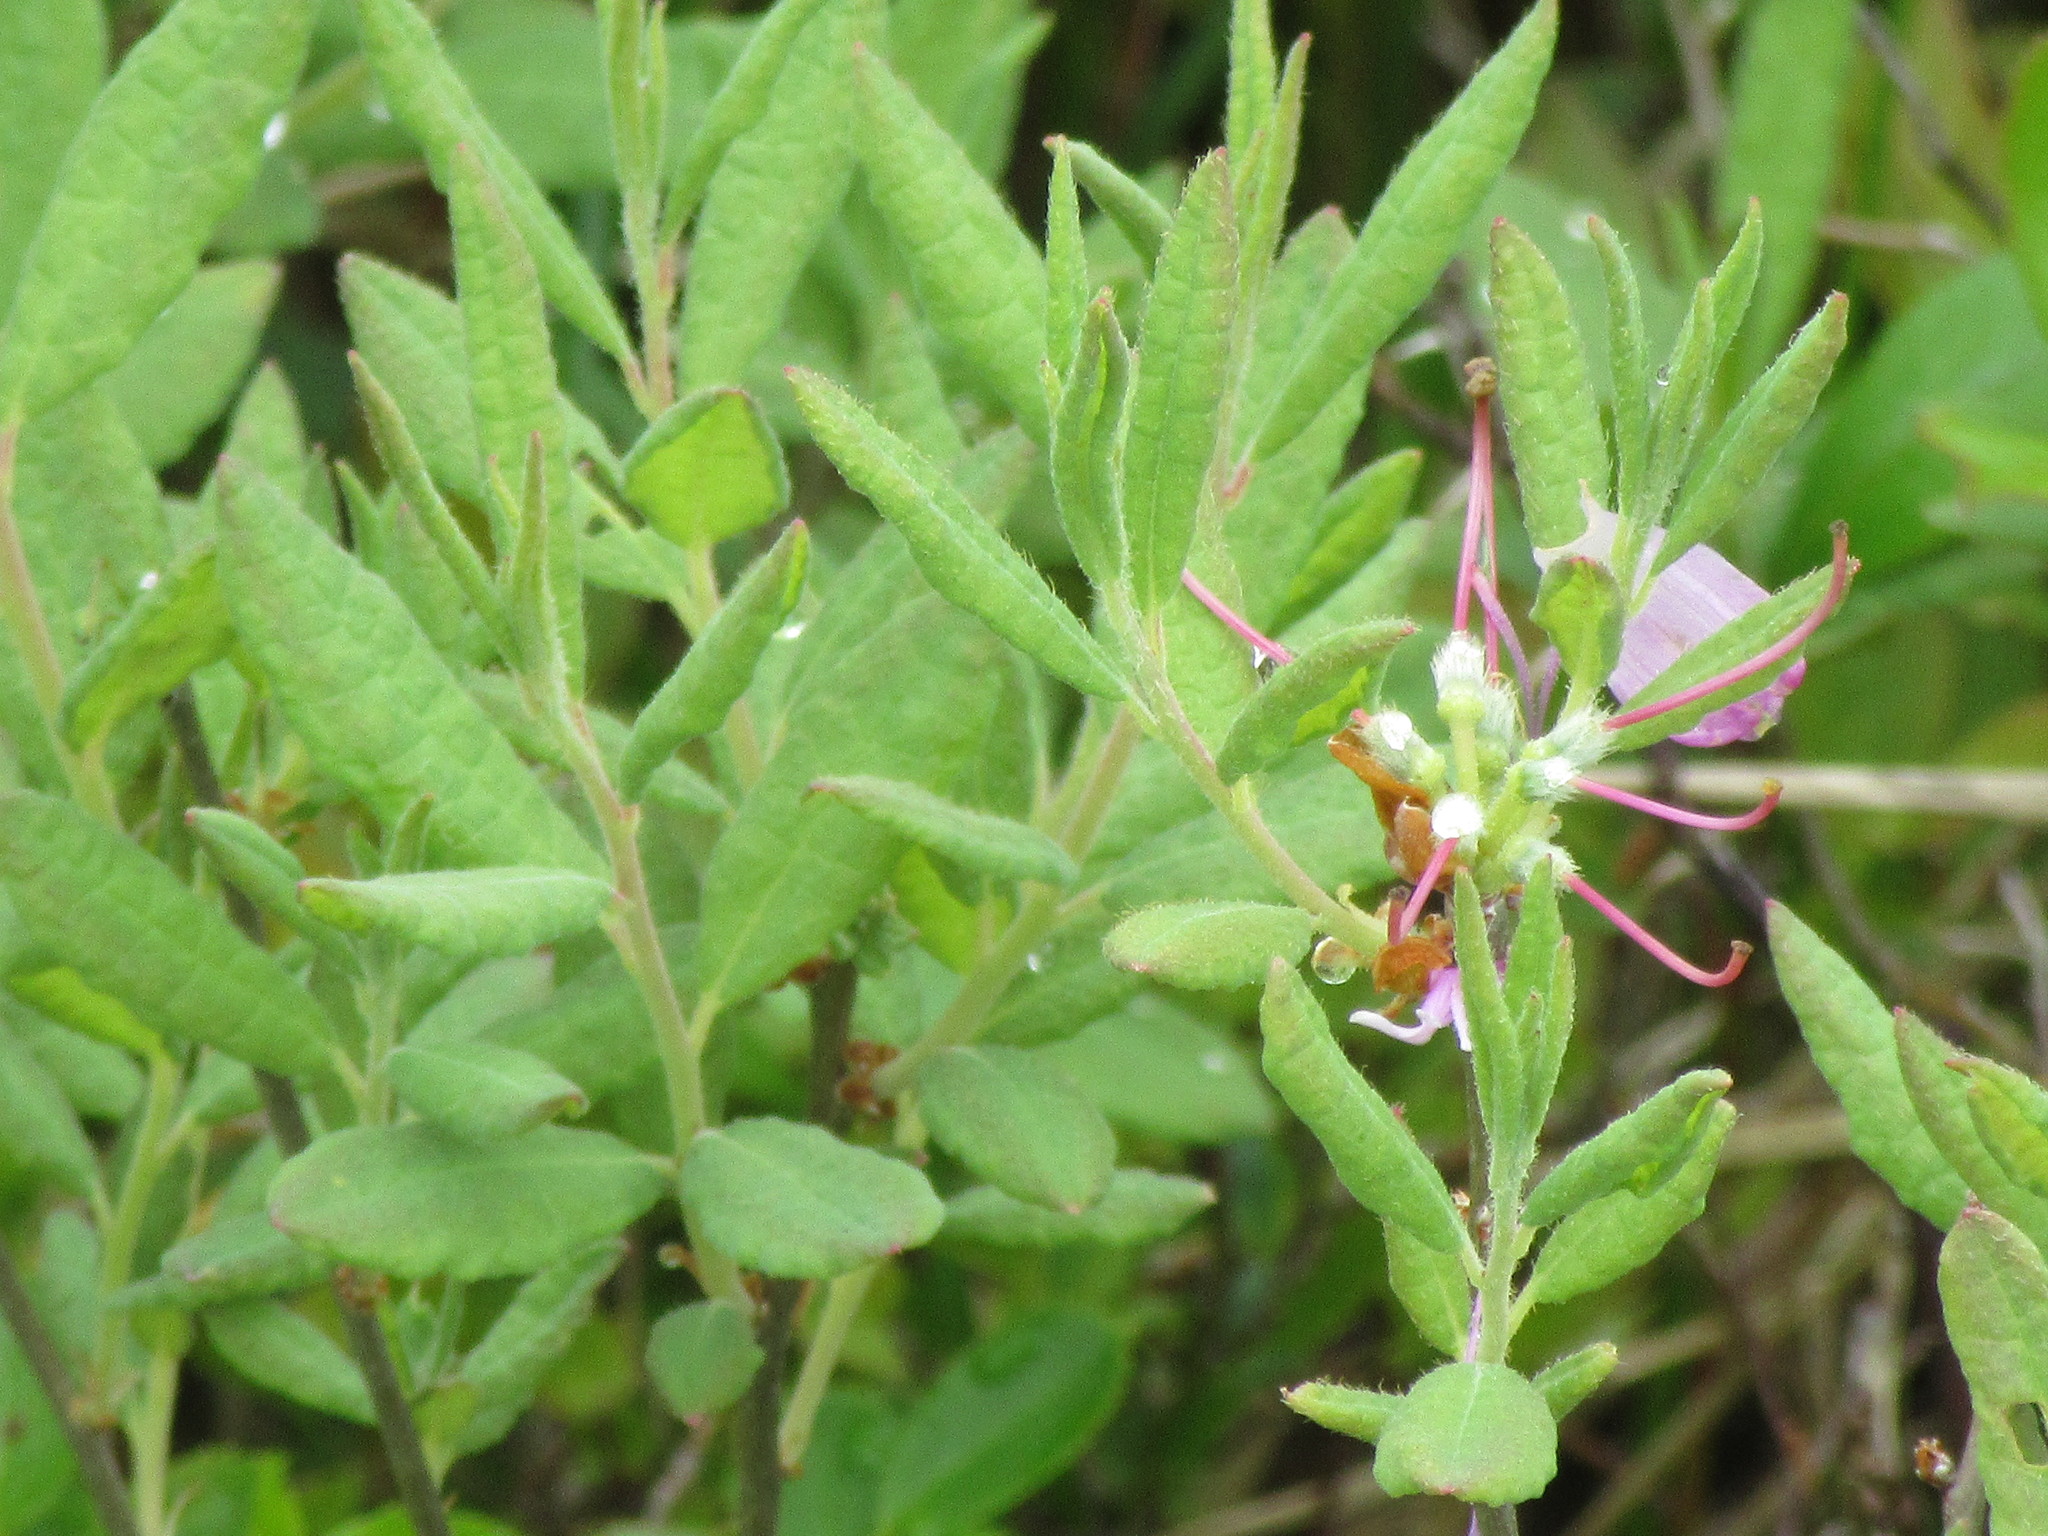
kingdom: Plantae
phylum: Tracheophyta
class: Magnoliopsida
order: Ericales
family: Ericaceae
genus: Rhododendron
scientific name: Rhododendron canadense
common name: Rhodora
